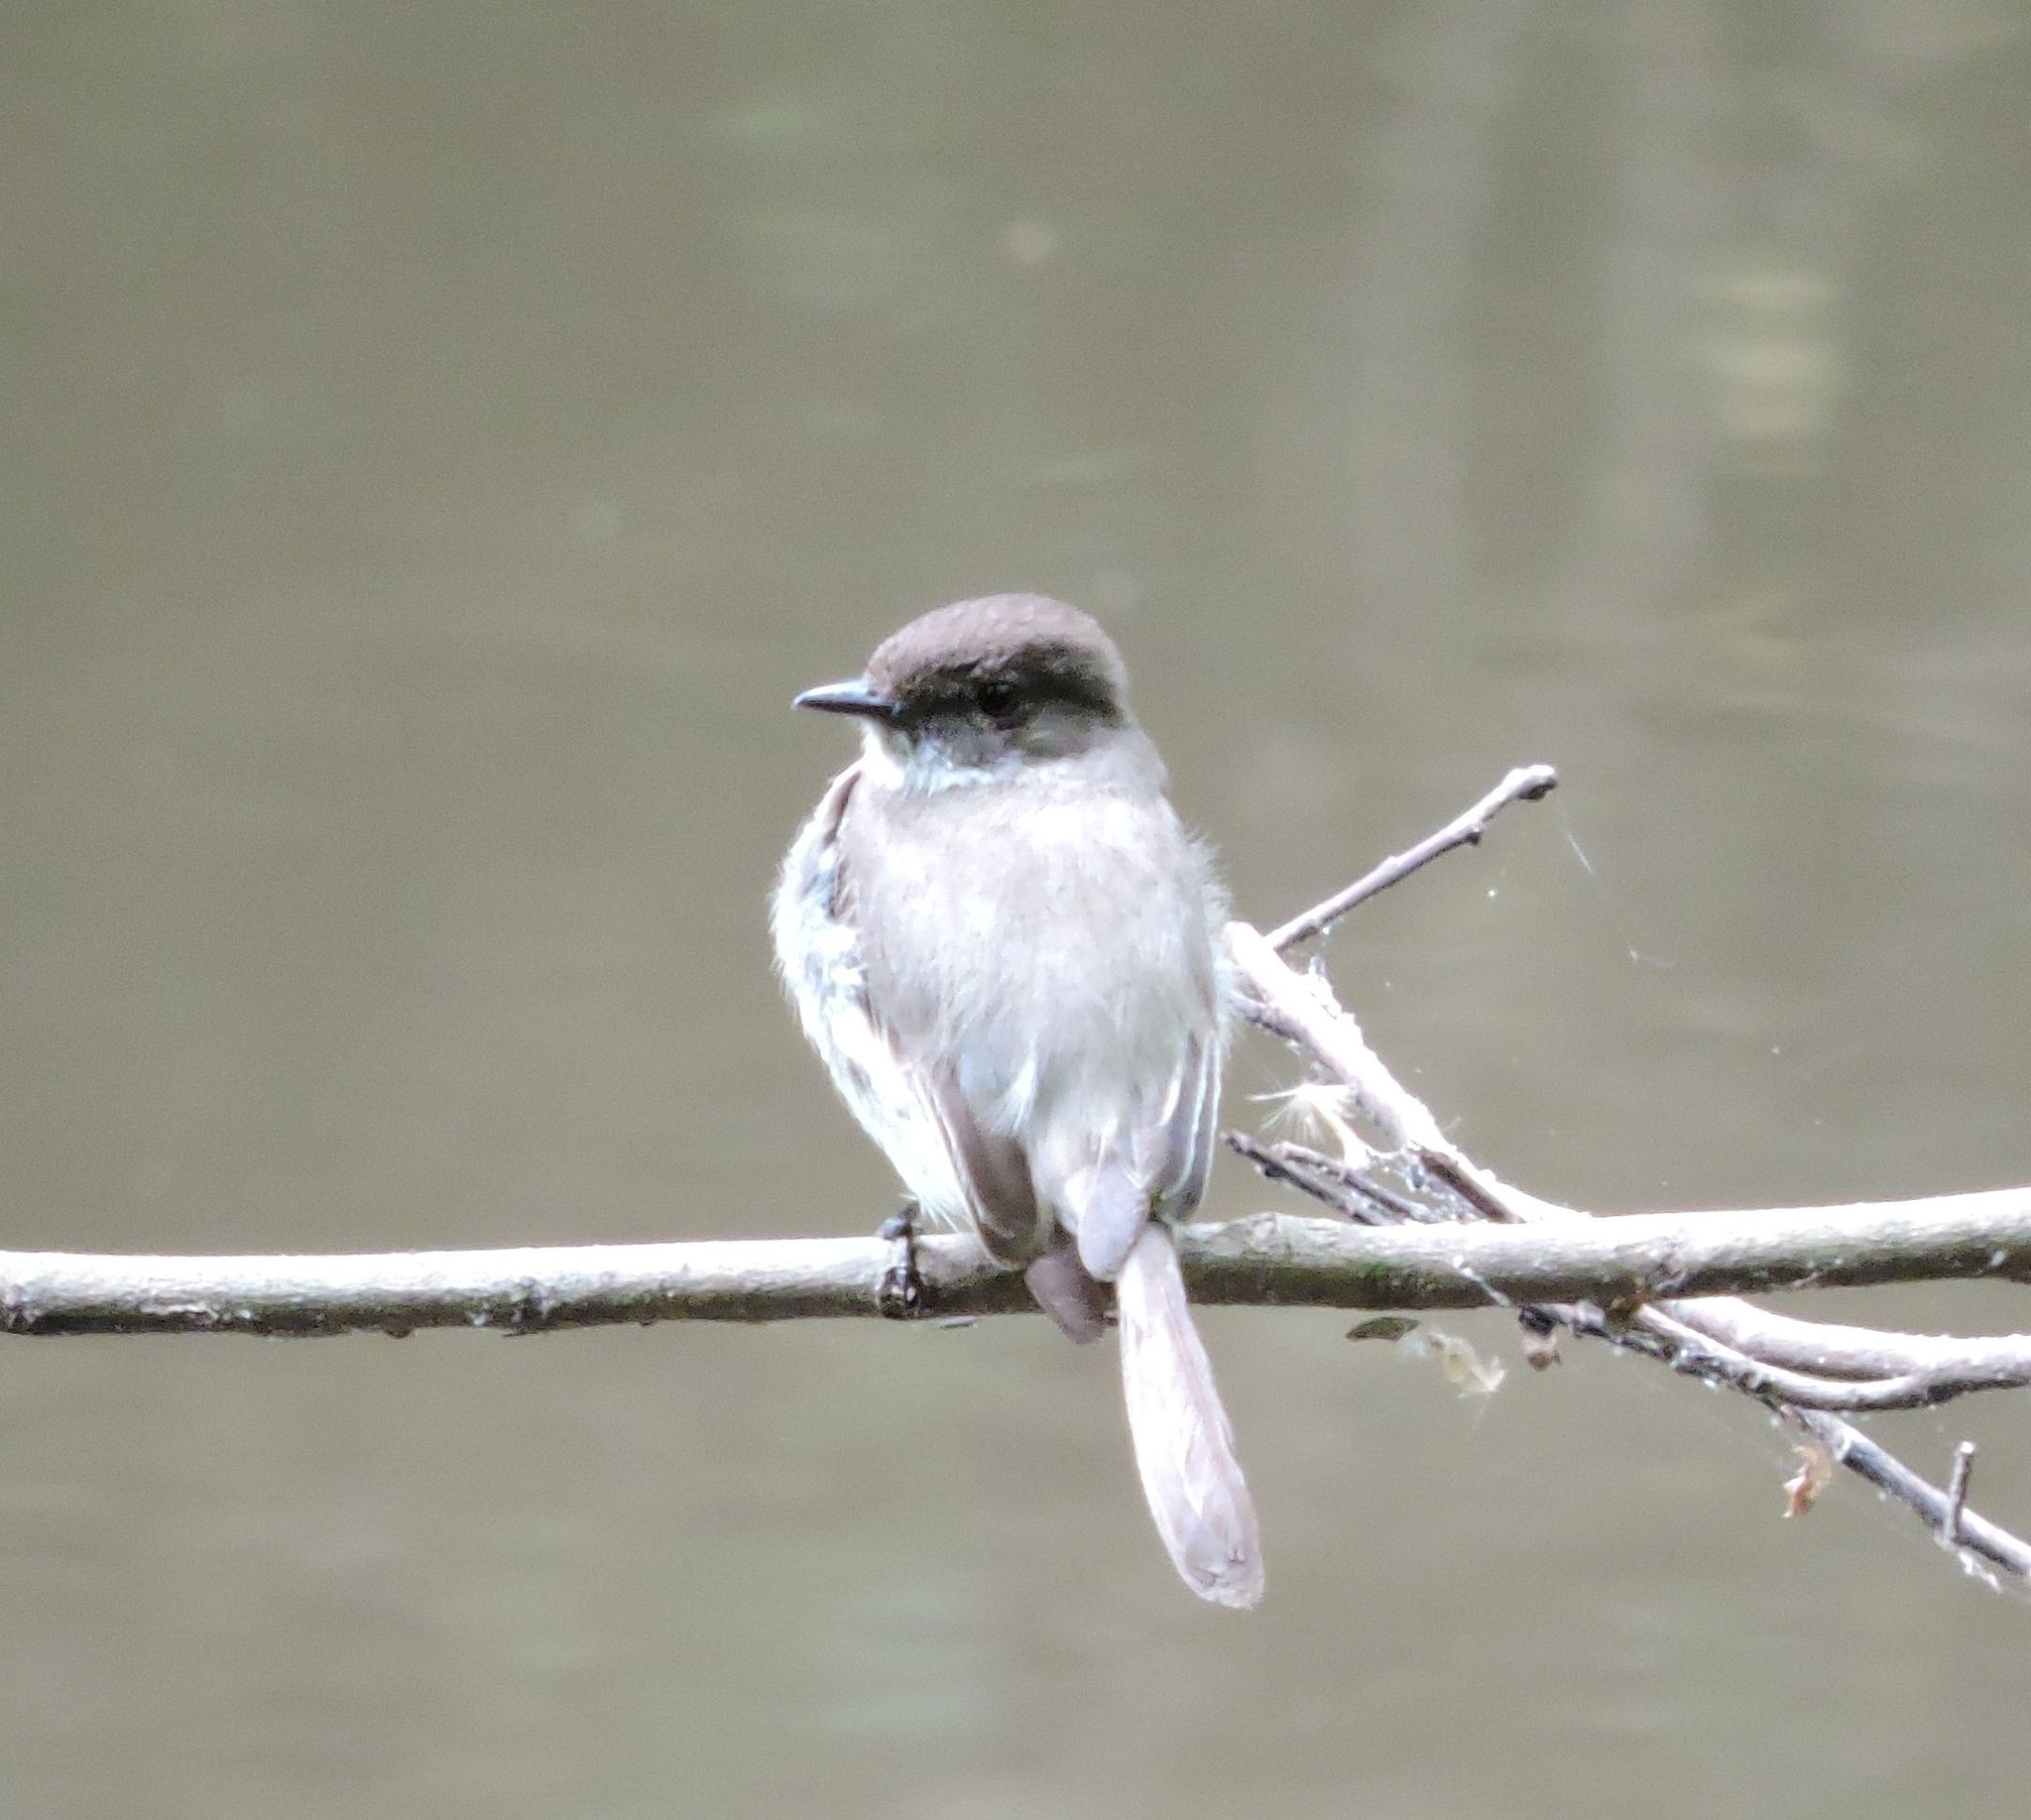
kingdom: Animalia
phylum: Chordata
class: Aves
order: Passeriformes
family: Tyrannidae
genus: Sayornis
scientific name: Sayornis phoebe
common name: Eastern phoebe
